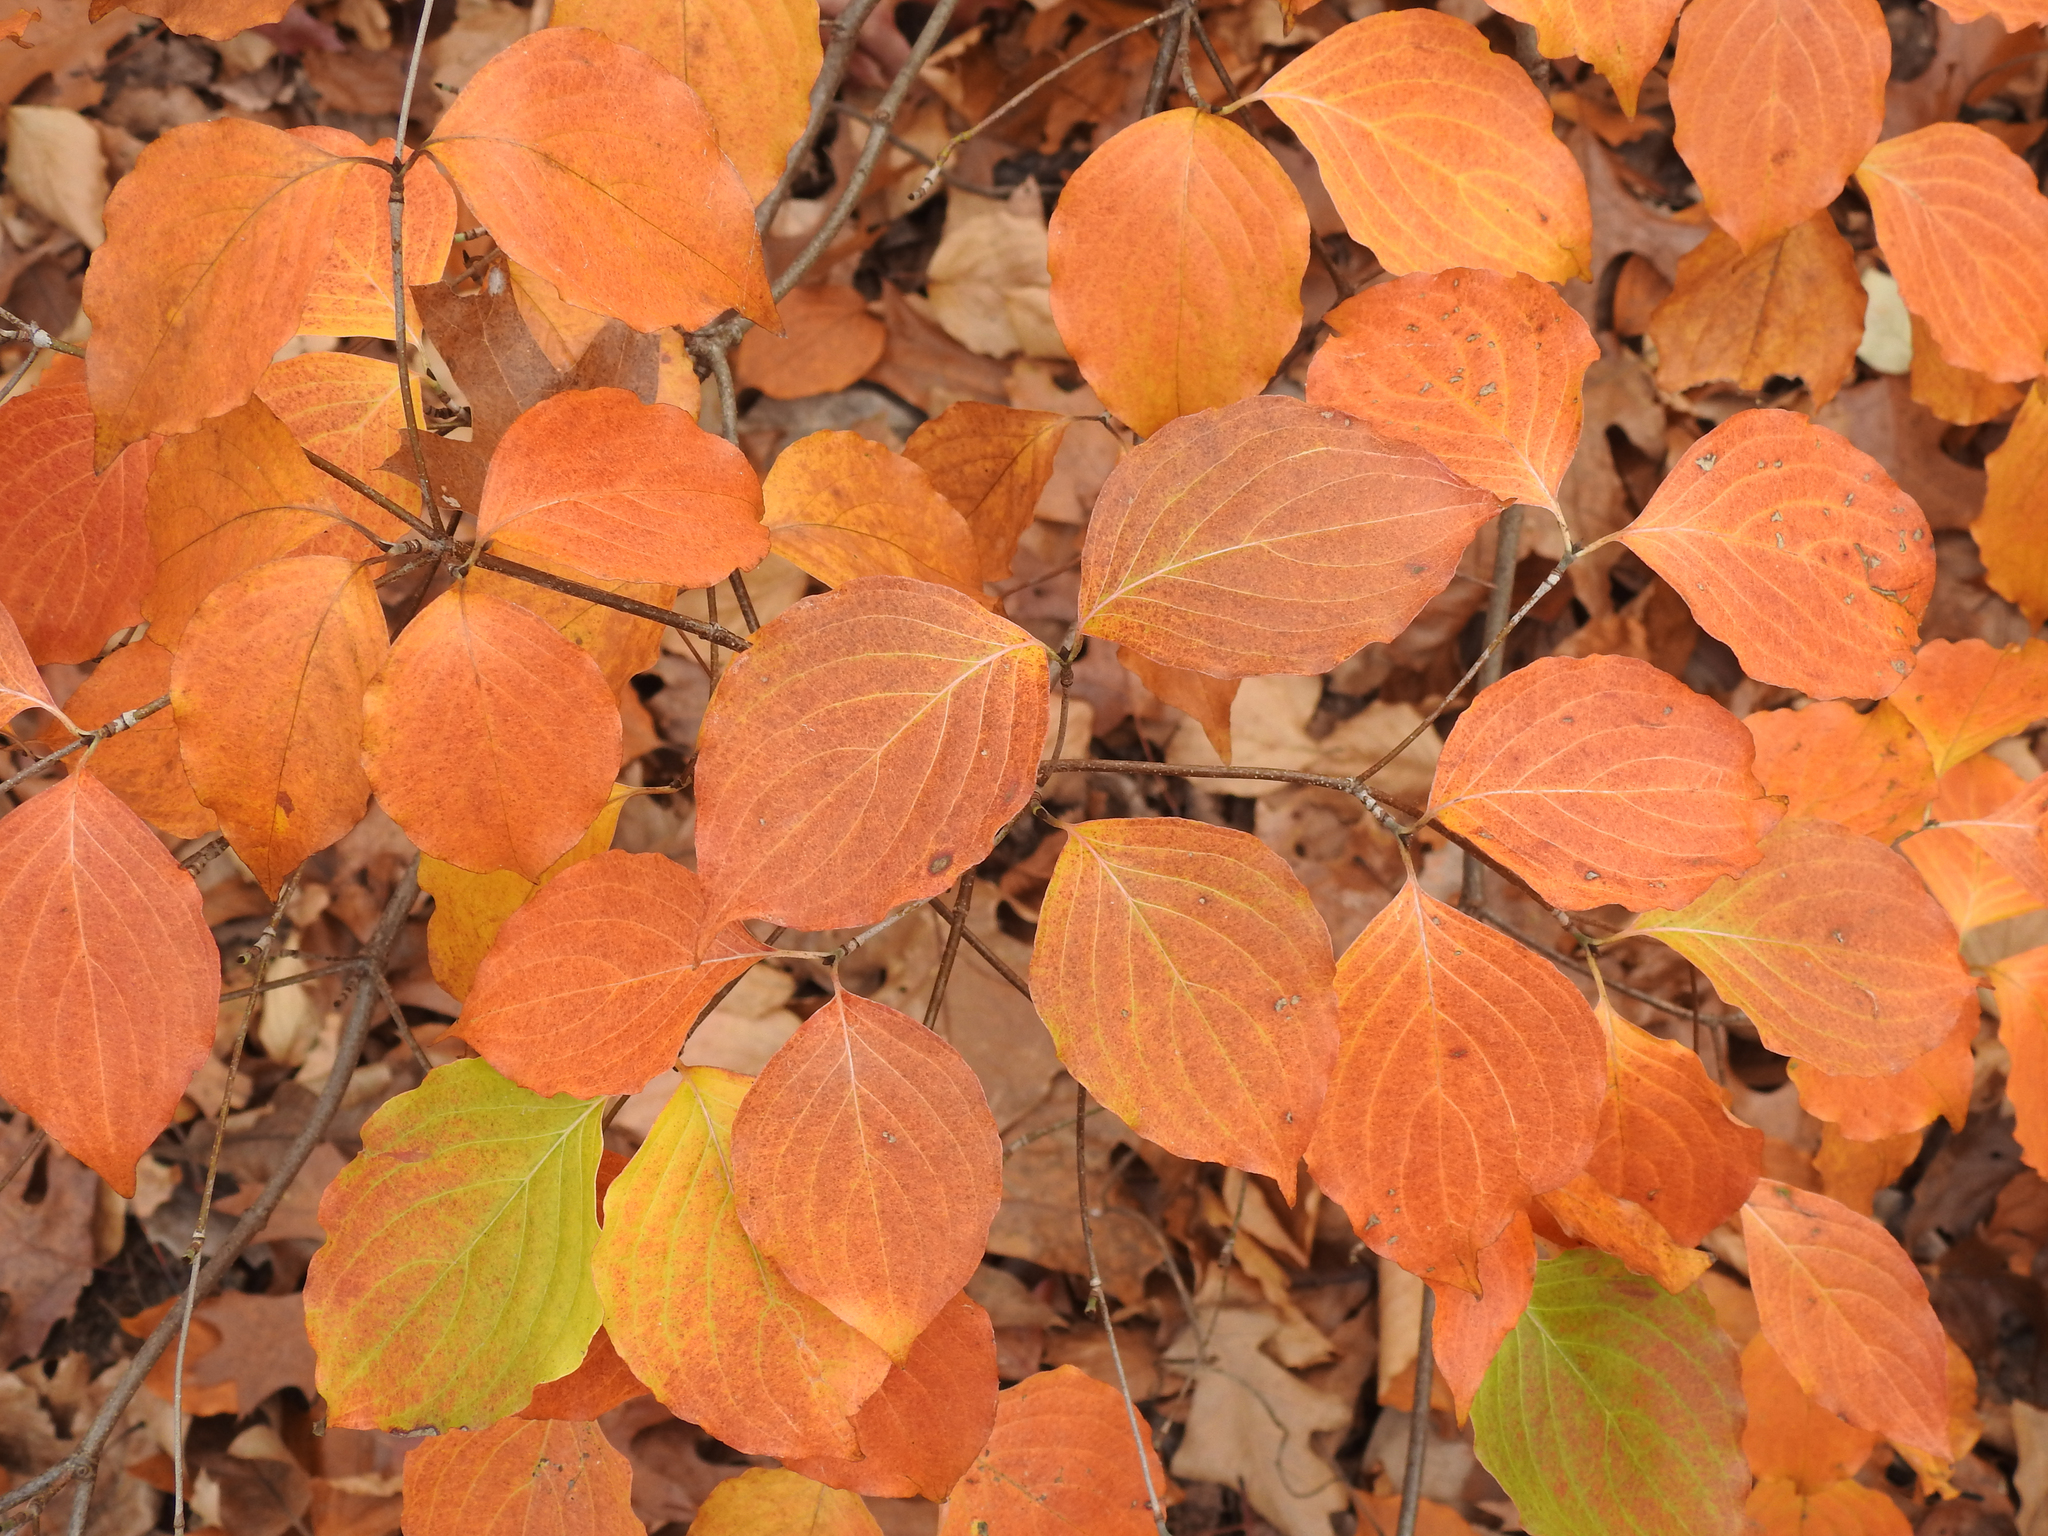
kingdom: Plantae
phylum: Tracheophyta
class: Magnoliopsida
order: Cornales
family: Cornaceae
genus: Cornus
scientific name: Cornus rugosa
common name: Round-leaf dogwood
